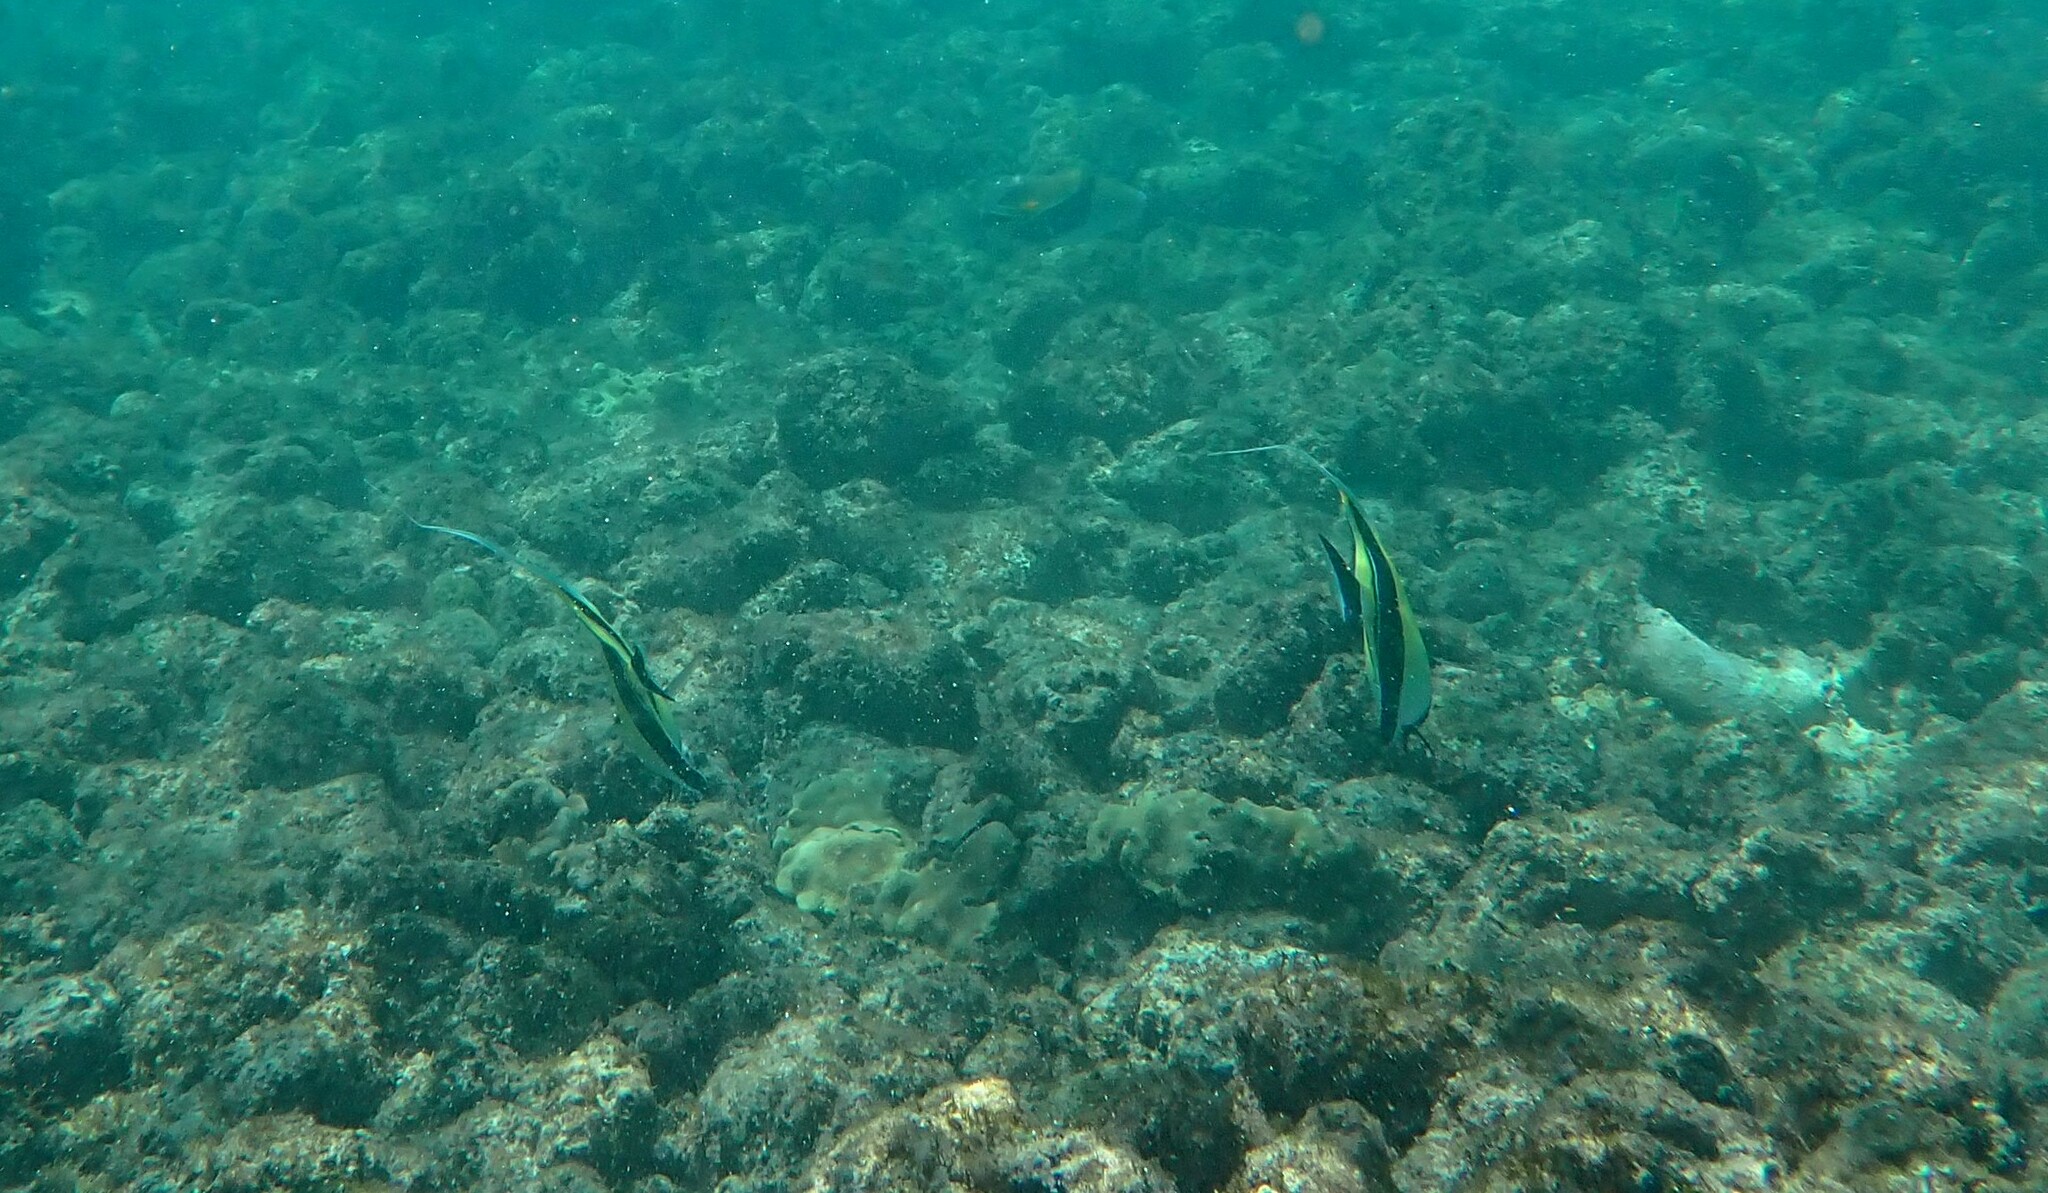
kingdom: Animalia
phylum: Chordata
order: Perciformes
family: Zanclidae
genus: Zanclus
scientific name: Zanclus cornutus
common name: Moorish idol
